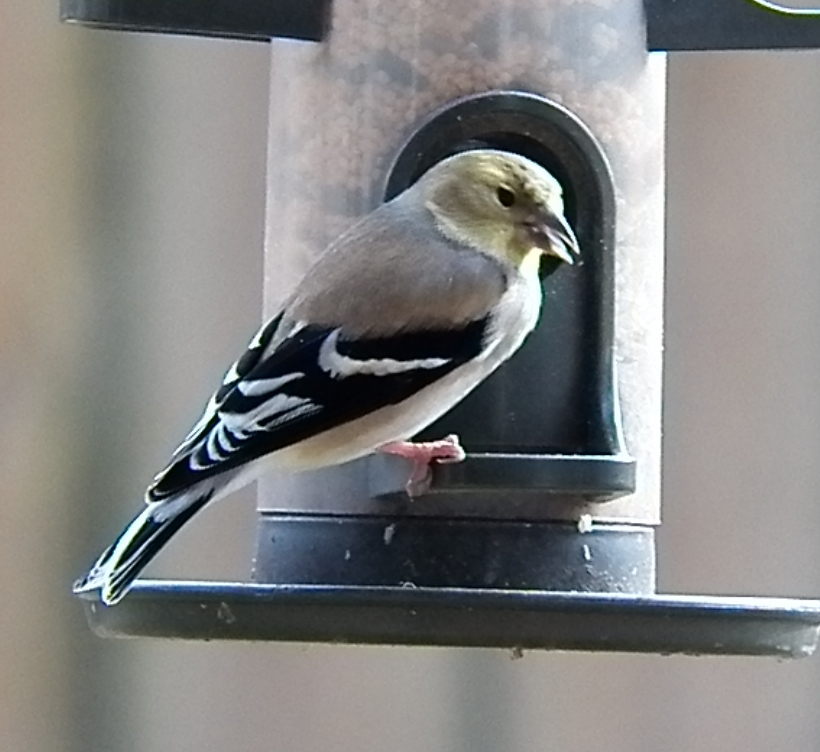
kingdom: Animalia
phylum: Chordata
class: Aves
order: Passeriformes
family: Fringillidae
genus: Spinus
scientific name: Spinus tristis
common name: American goldfinch
